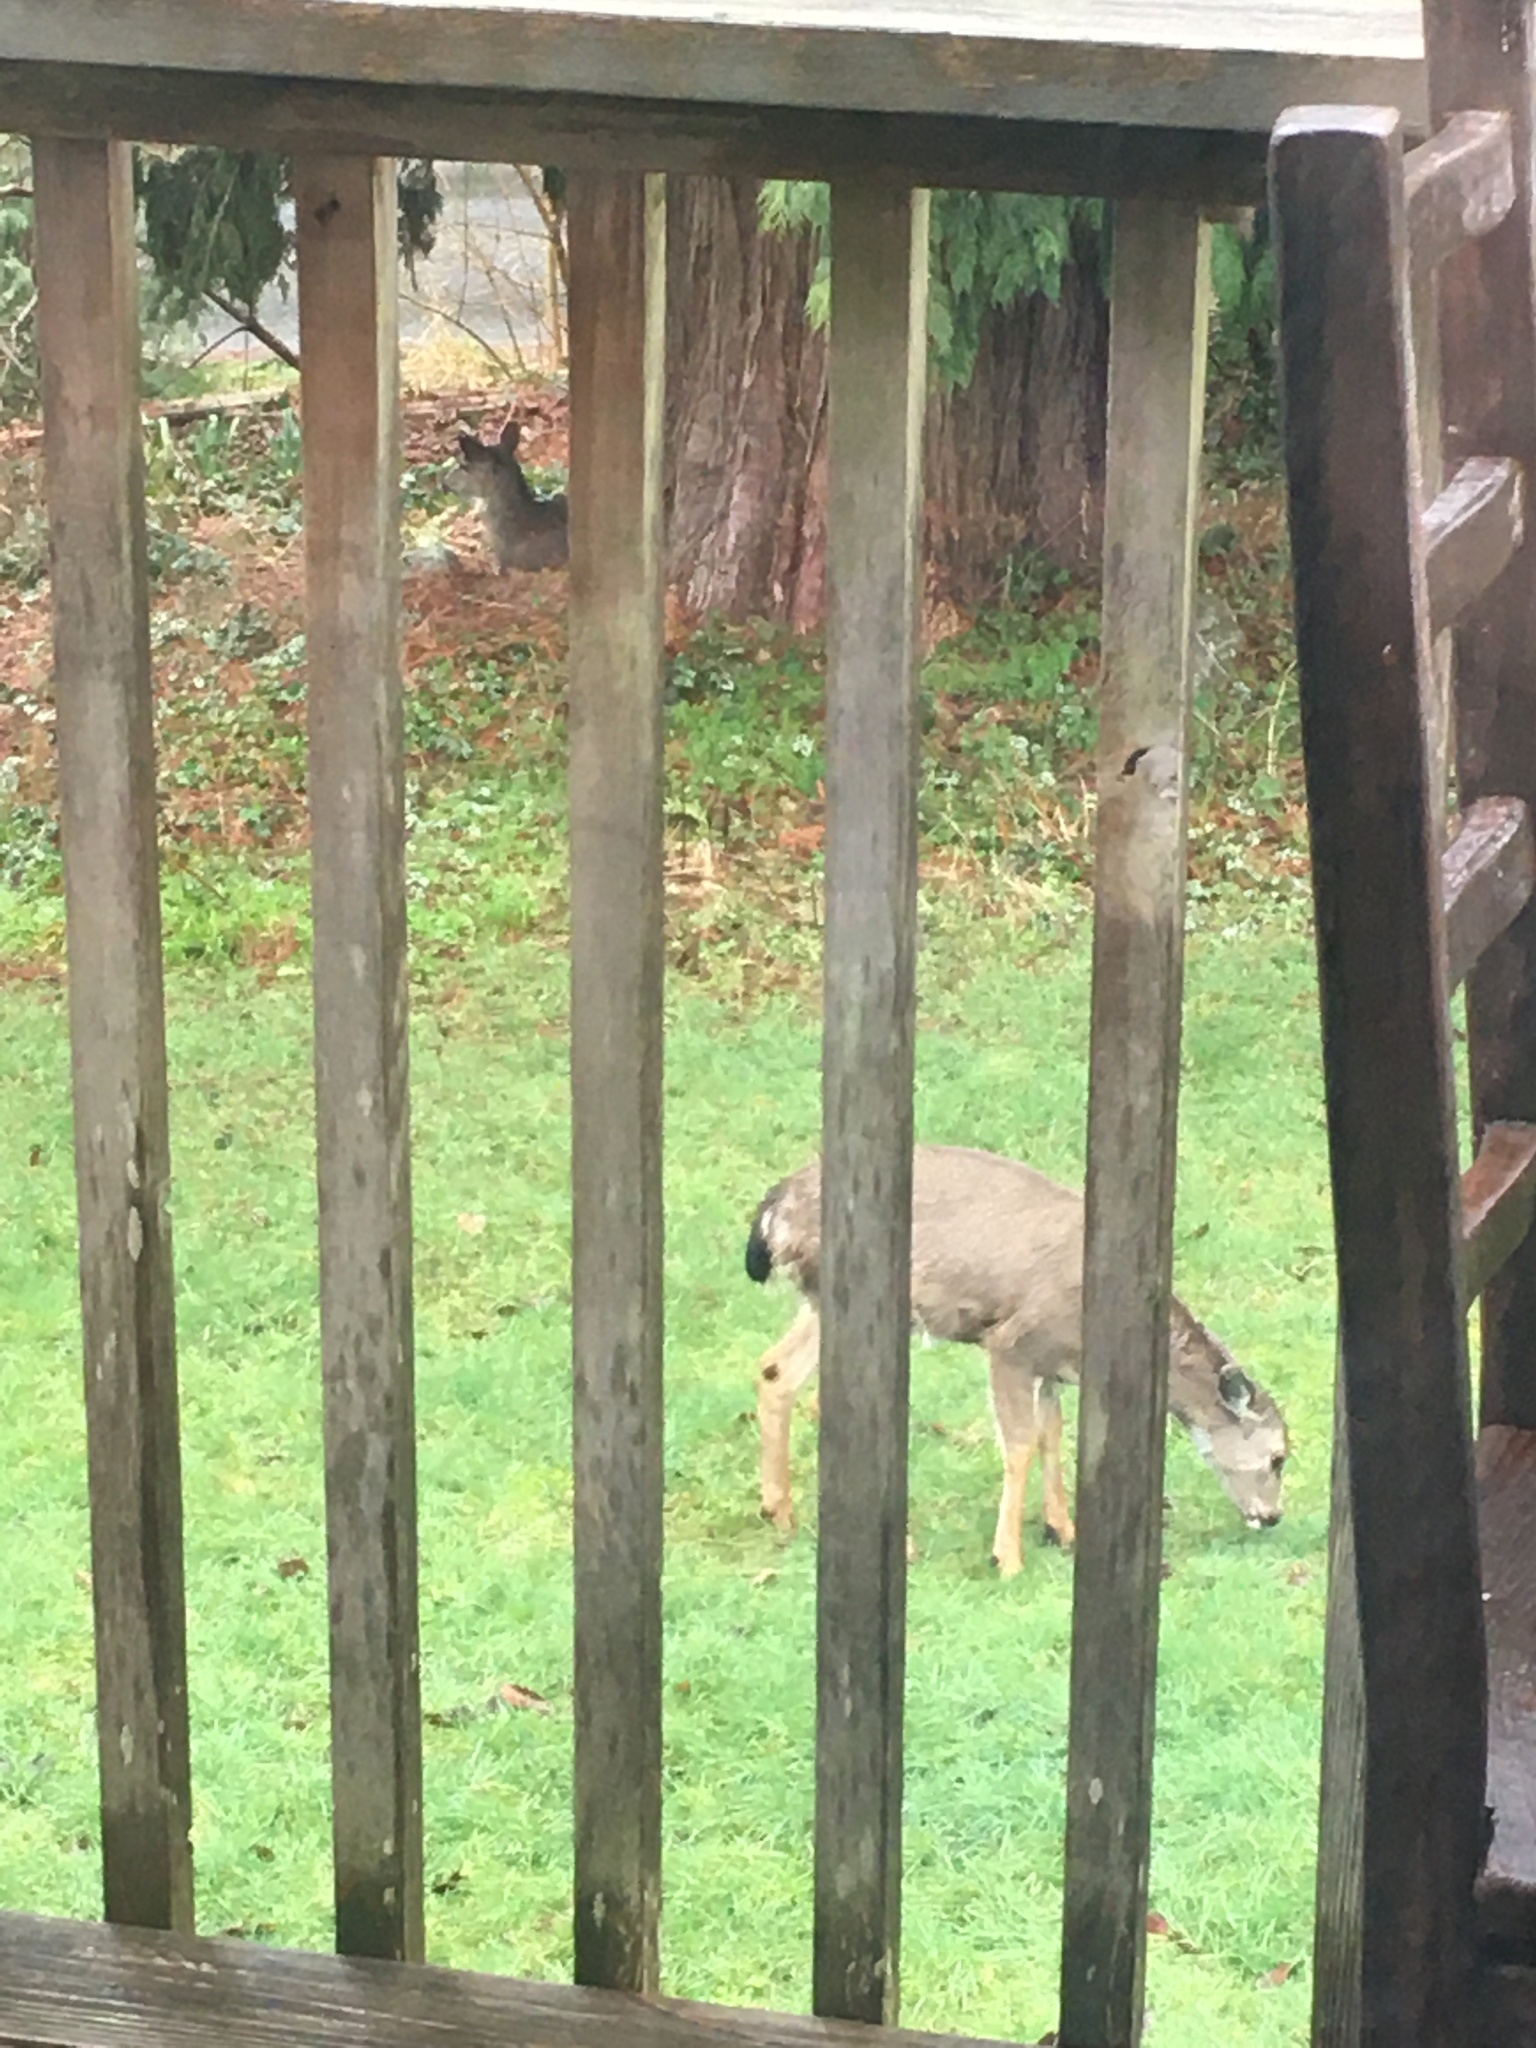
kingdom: Animalia
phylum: Chordata
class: Mammalia
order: Artiodactyla
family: Cervidae
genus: Odocoileus
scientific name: Odocoileus hemionus
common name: Mule deer
